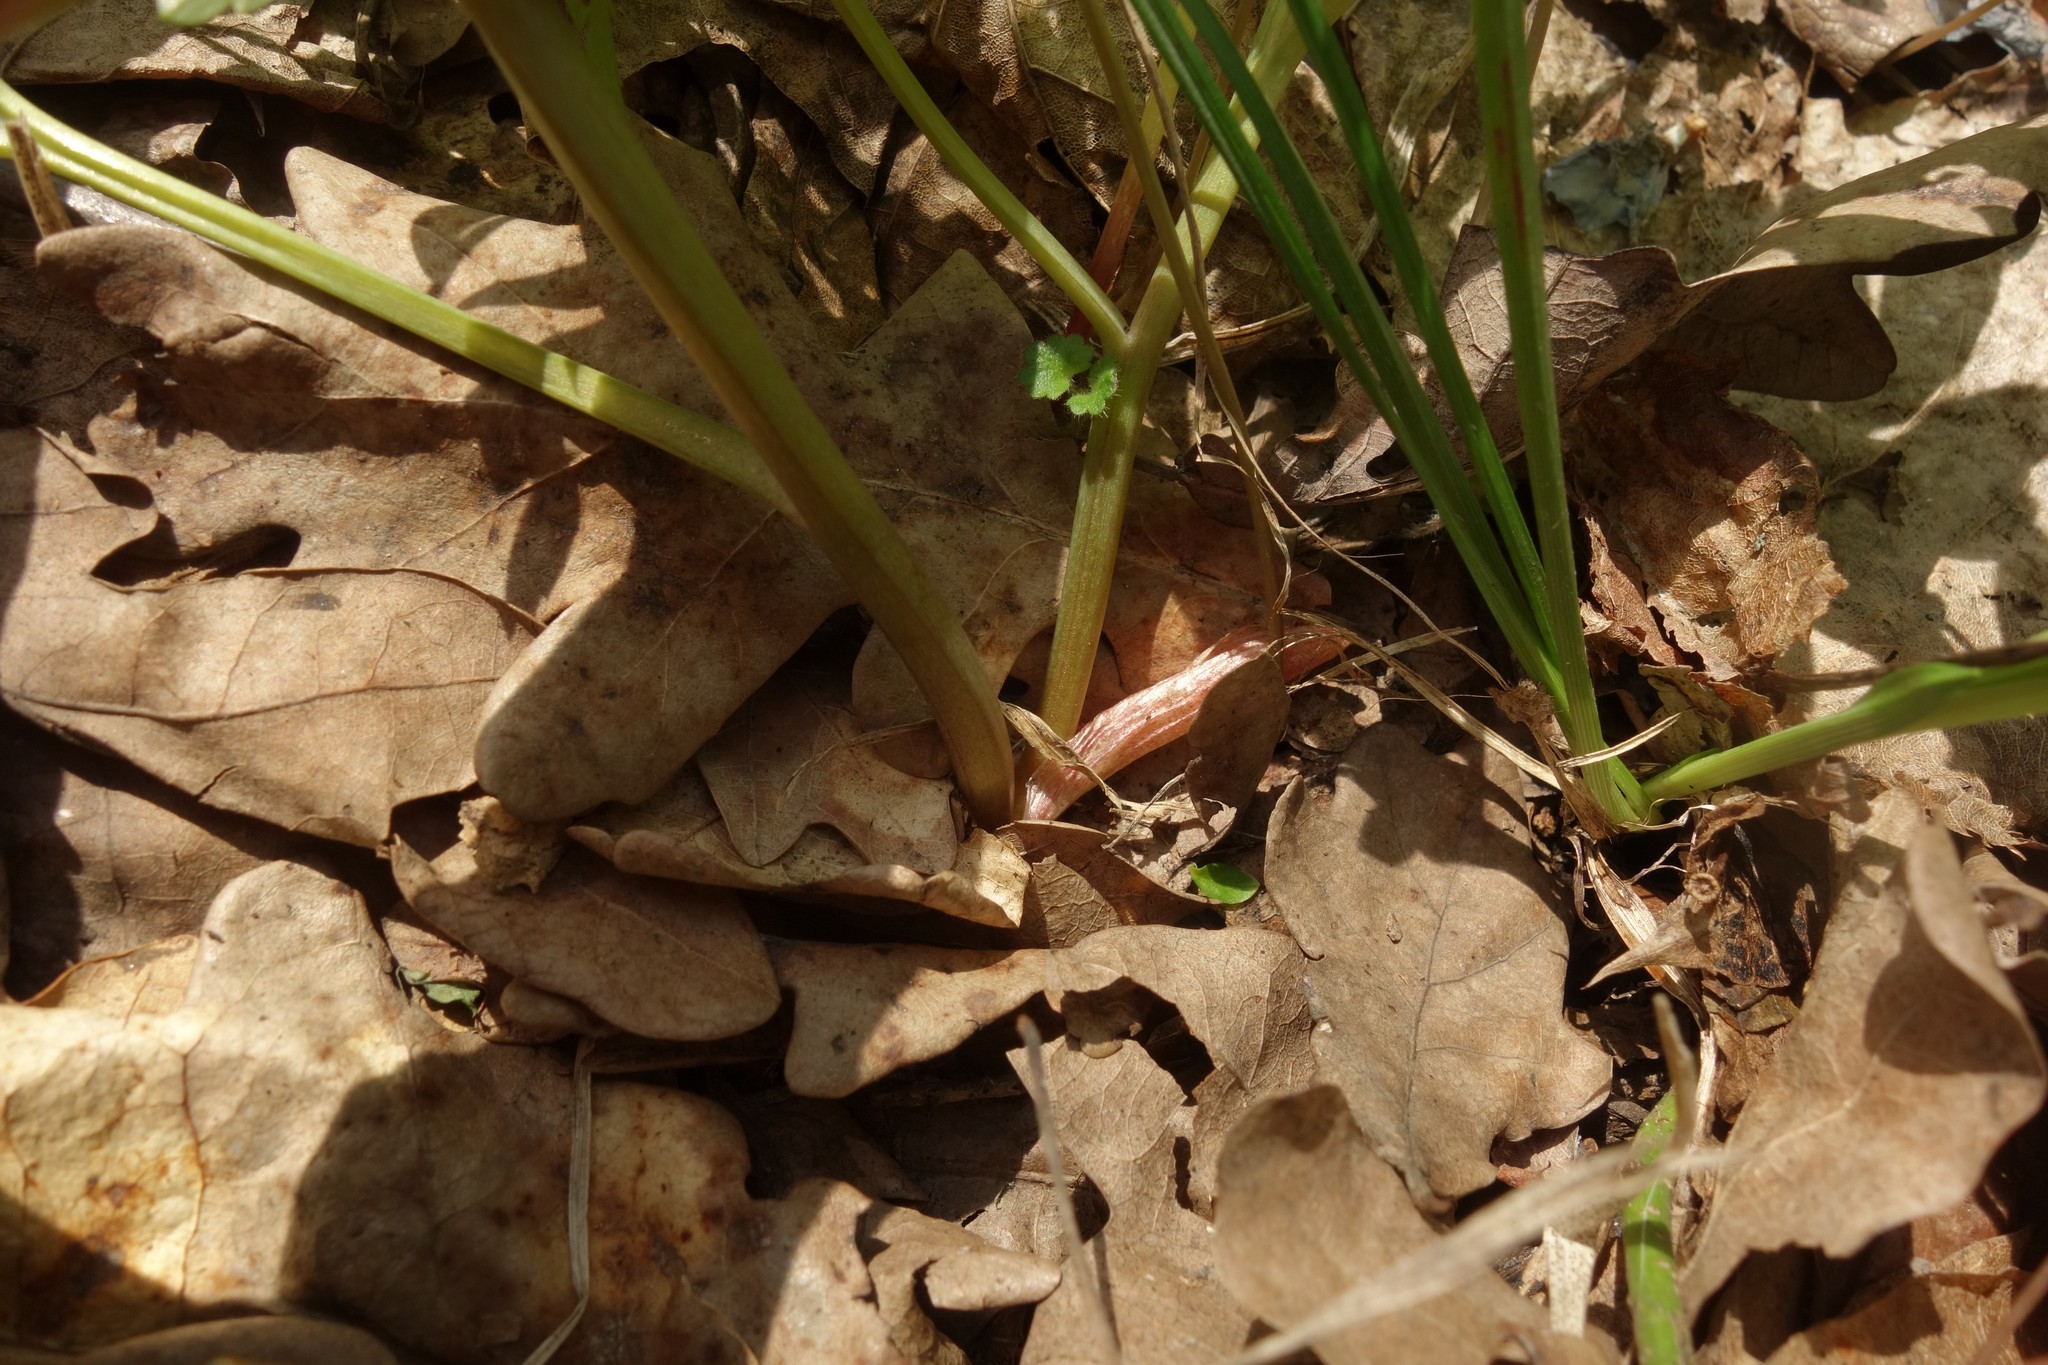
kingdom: Plantae
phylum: Tracheophyta
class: Magnoliopsida
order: Ranunculales
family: Papaveraceae
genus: Corydalis
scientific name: Corydalis solida
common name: Bird-in-a-bush
